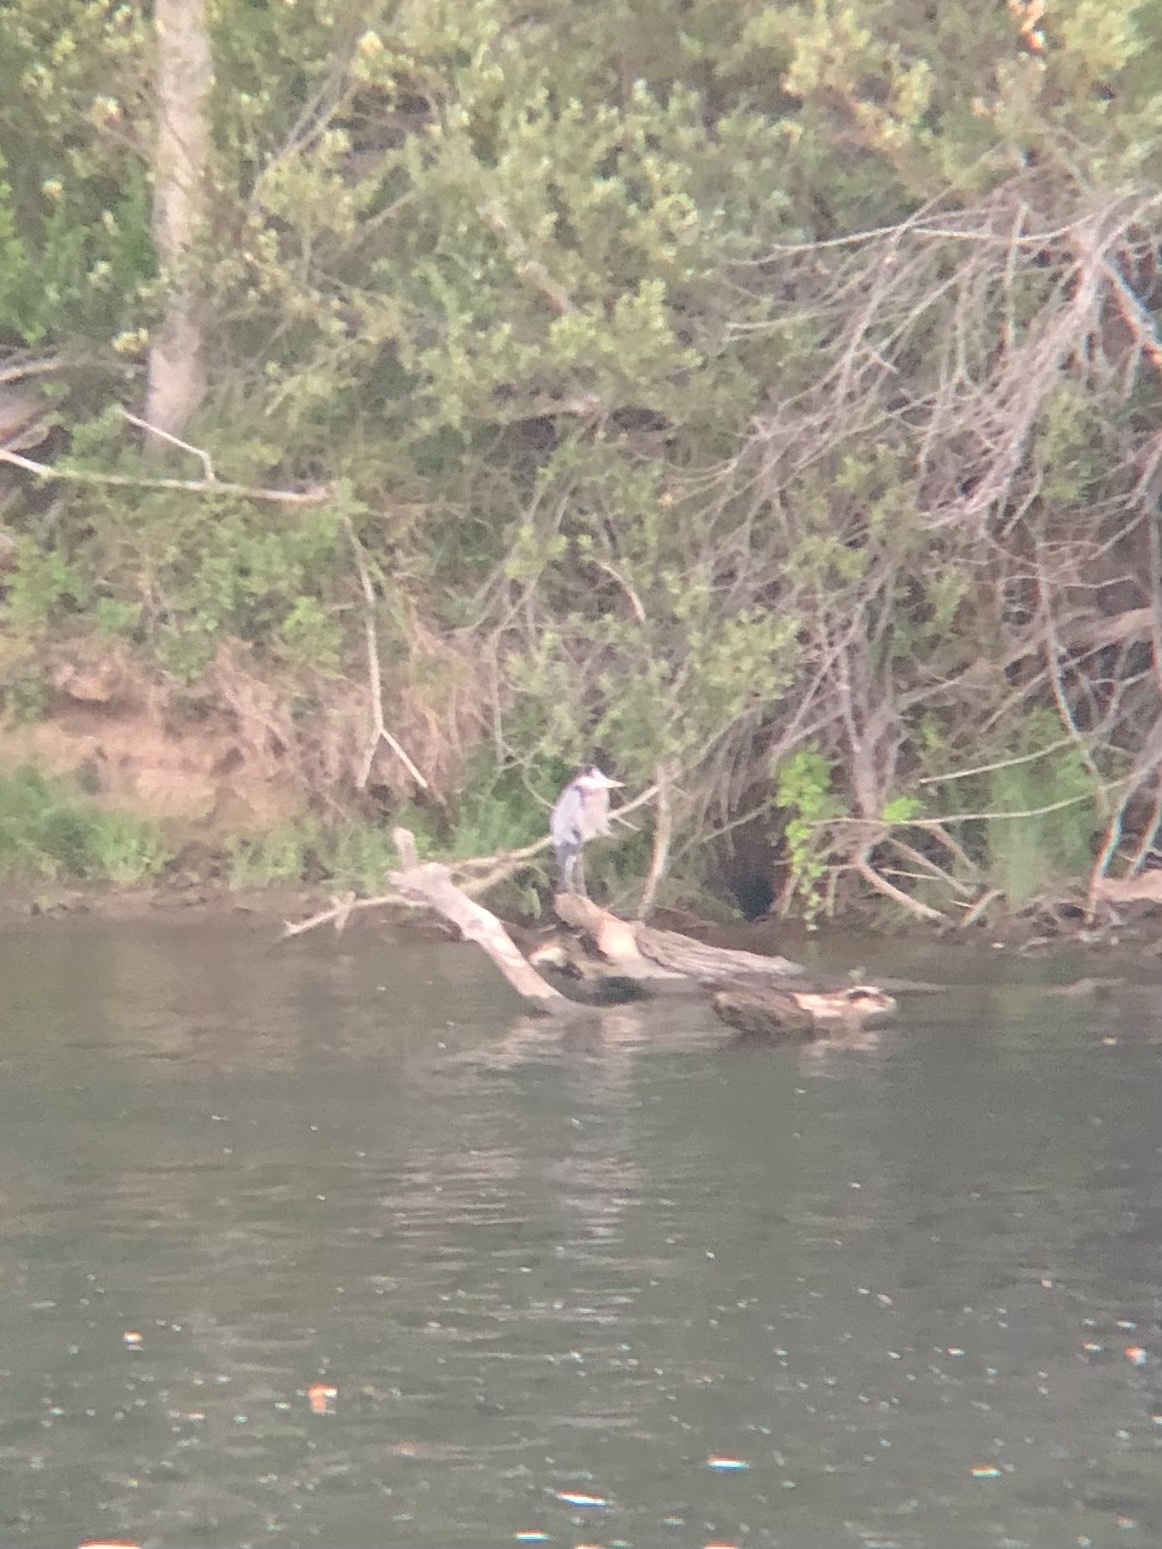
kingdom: Animalia
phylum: Chordata
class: Aves
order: Pelecaniformes
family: Ardeidae
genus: Ardea
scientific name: Ardea herodias
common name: Great blue heron
